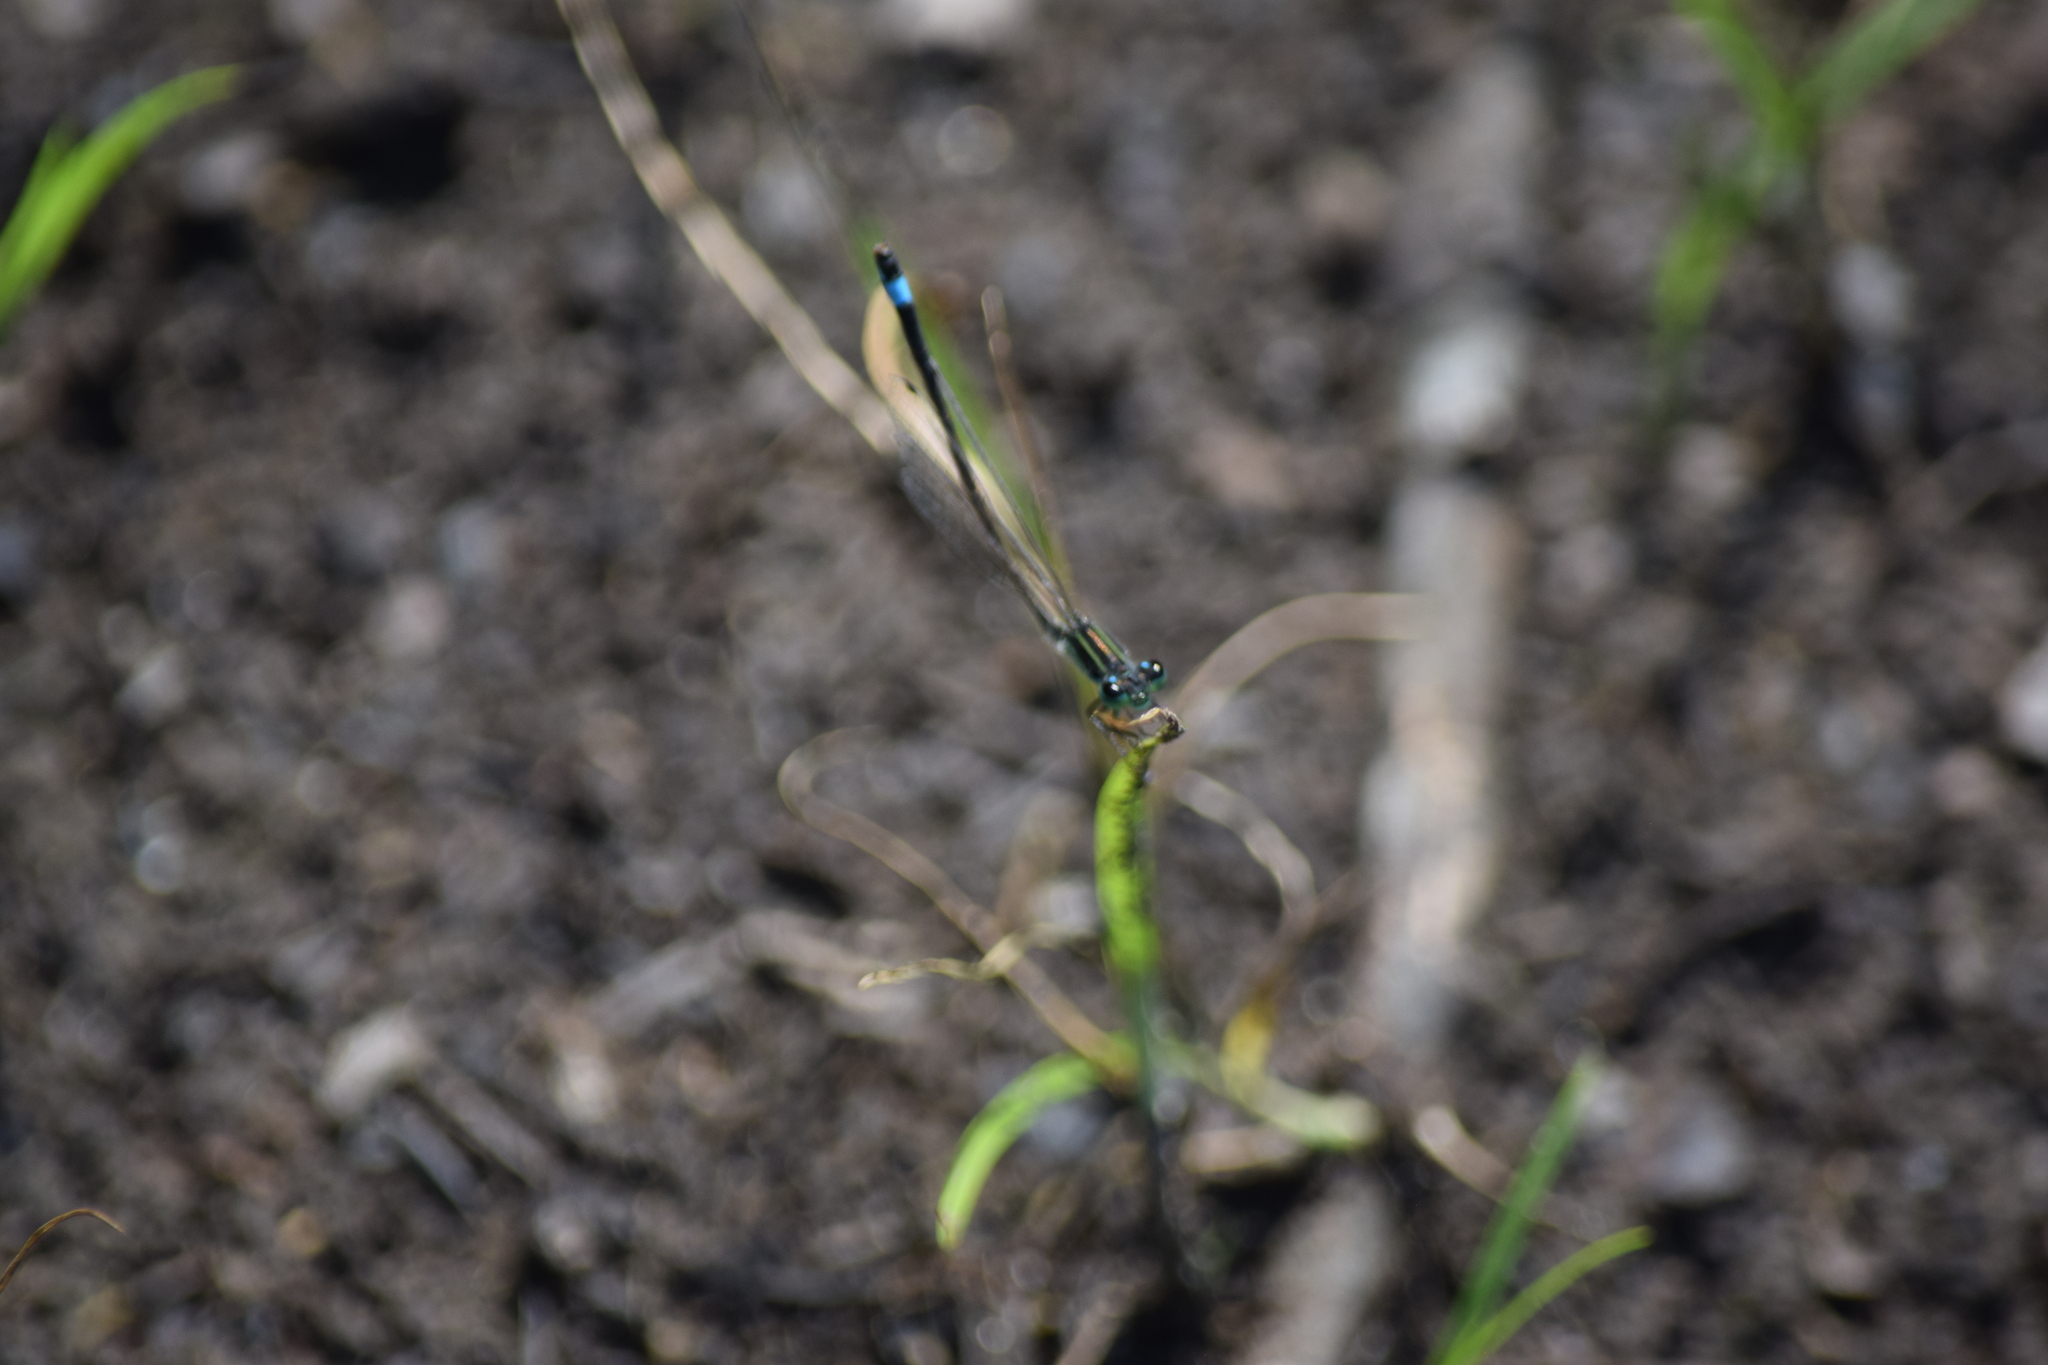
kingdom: Animalia
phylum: Arthropoda
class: Insecta
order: Odonata
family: Coenagrionidae
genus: Ischnura
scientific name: Ischnura ramburii
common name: Rambur's forktail
